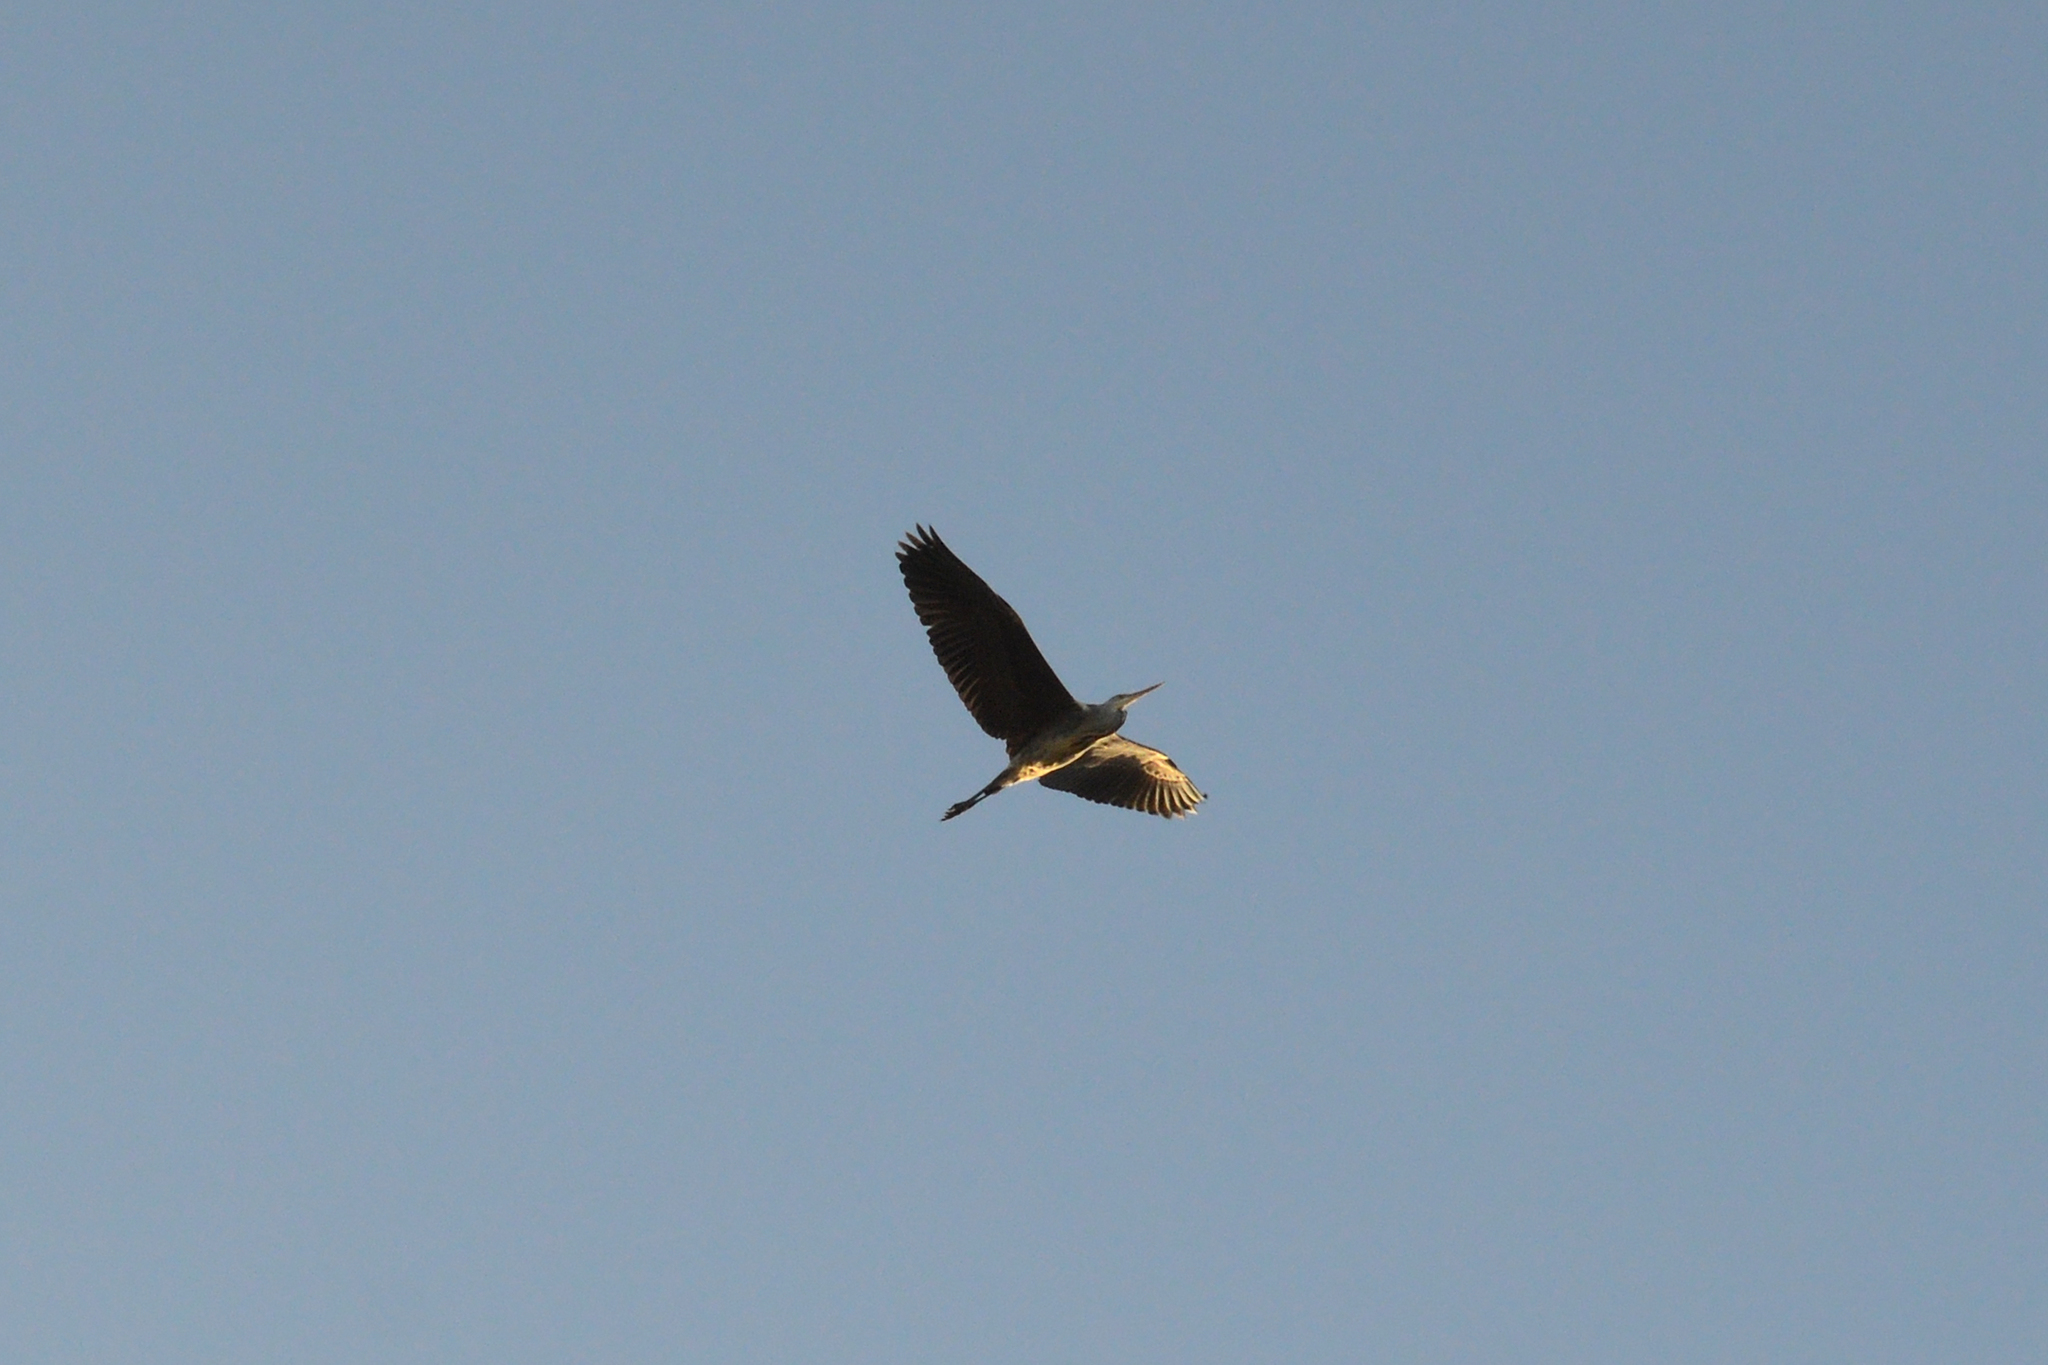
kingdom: Animalia
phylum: Chordata
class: Aves
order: Pelecaniformes
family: Ardeidae
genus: Ardea
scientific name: Ardea cinerea
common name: Grey heron
